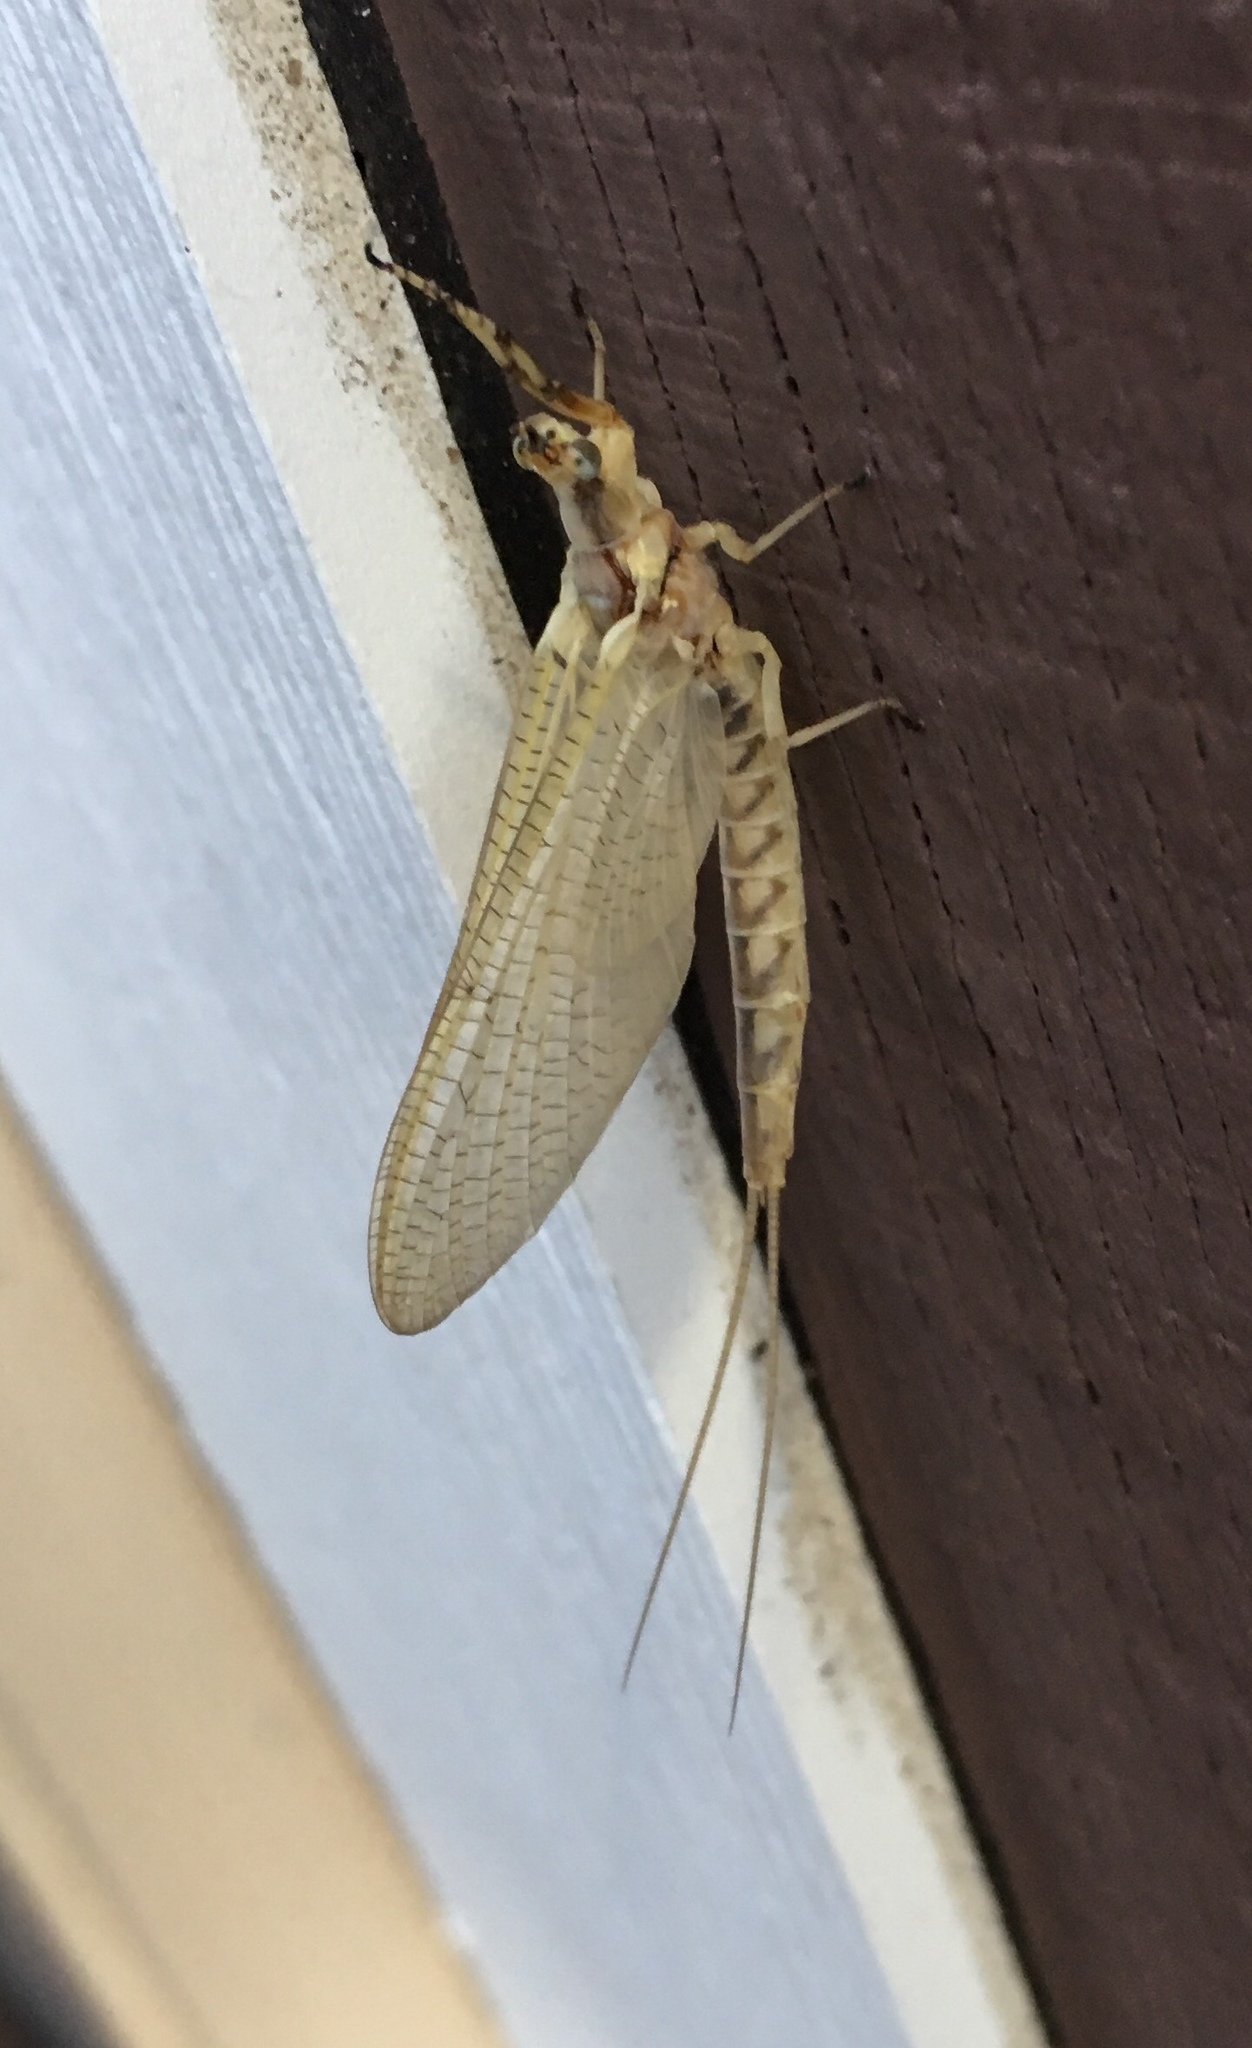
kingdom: Animalia
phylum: Arthropoda
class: Insecta
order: Ephemeroptera
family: Ephemeridae
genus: Hexagenia
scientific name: Hexagenia limbata
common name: Giant mayfly
